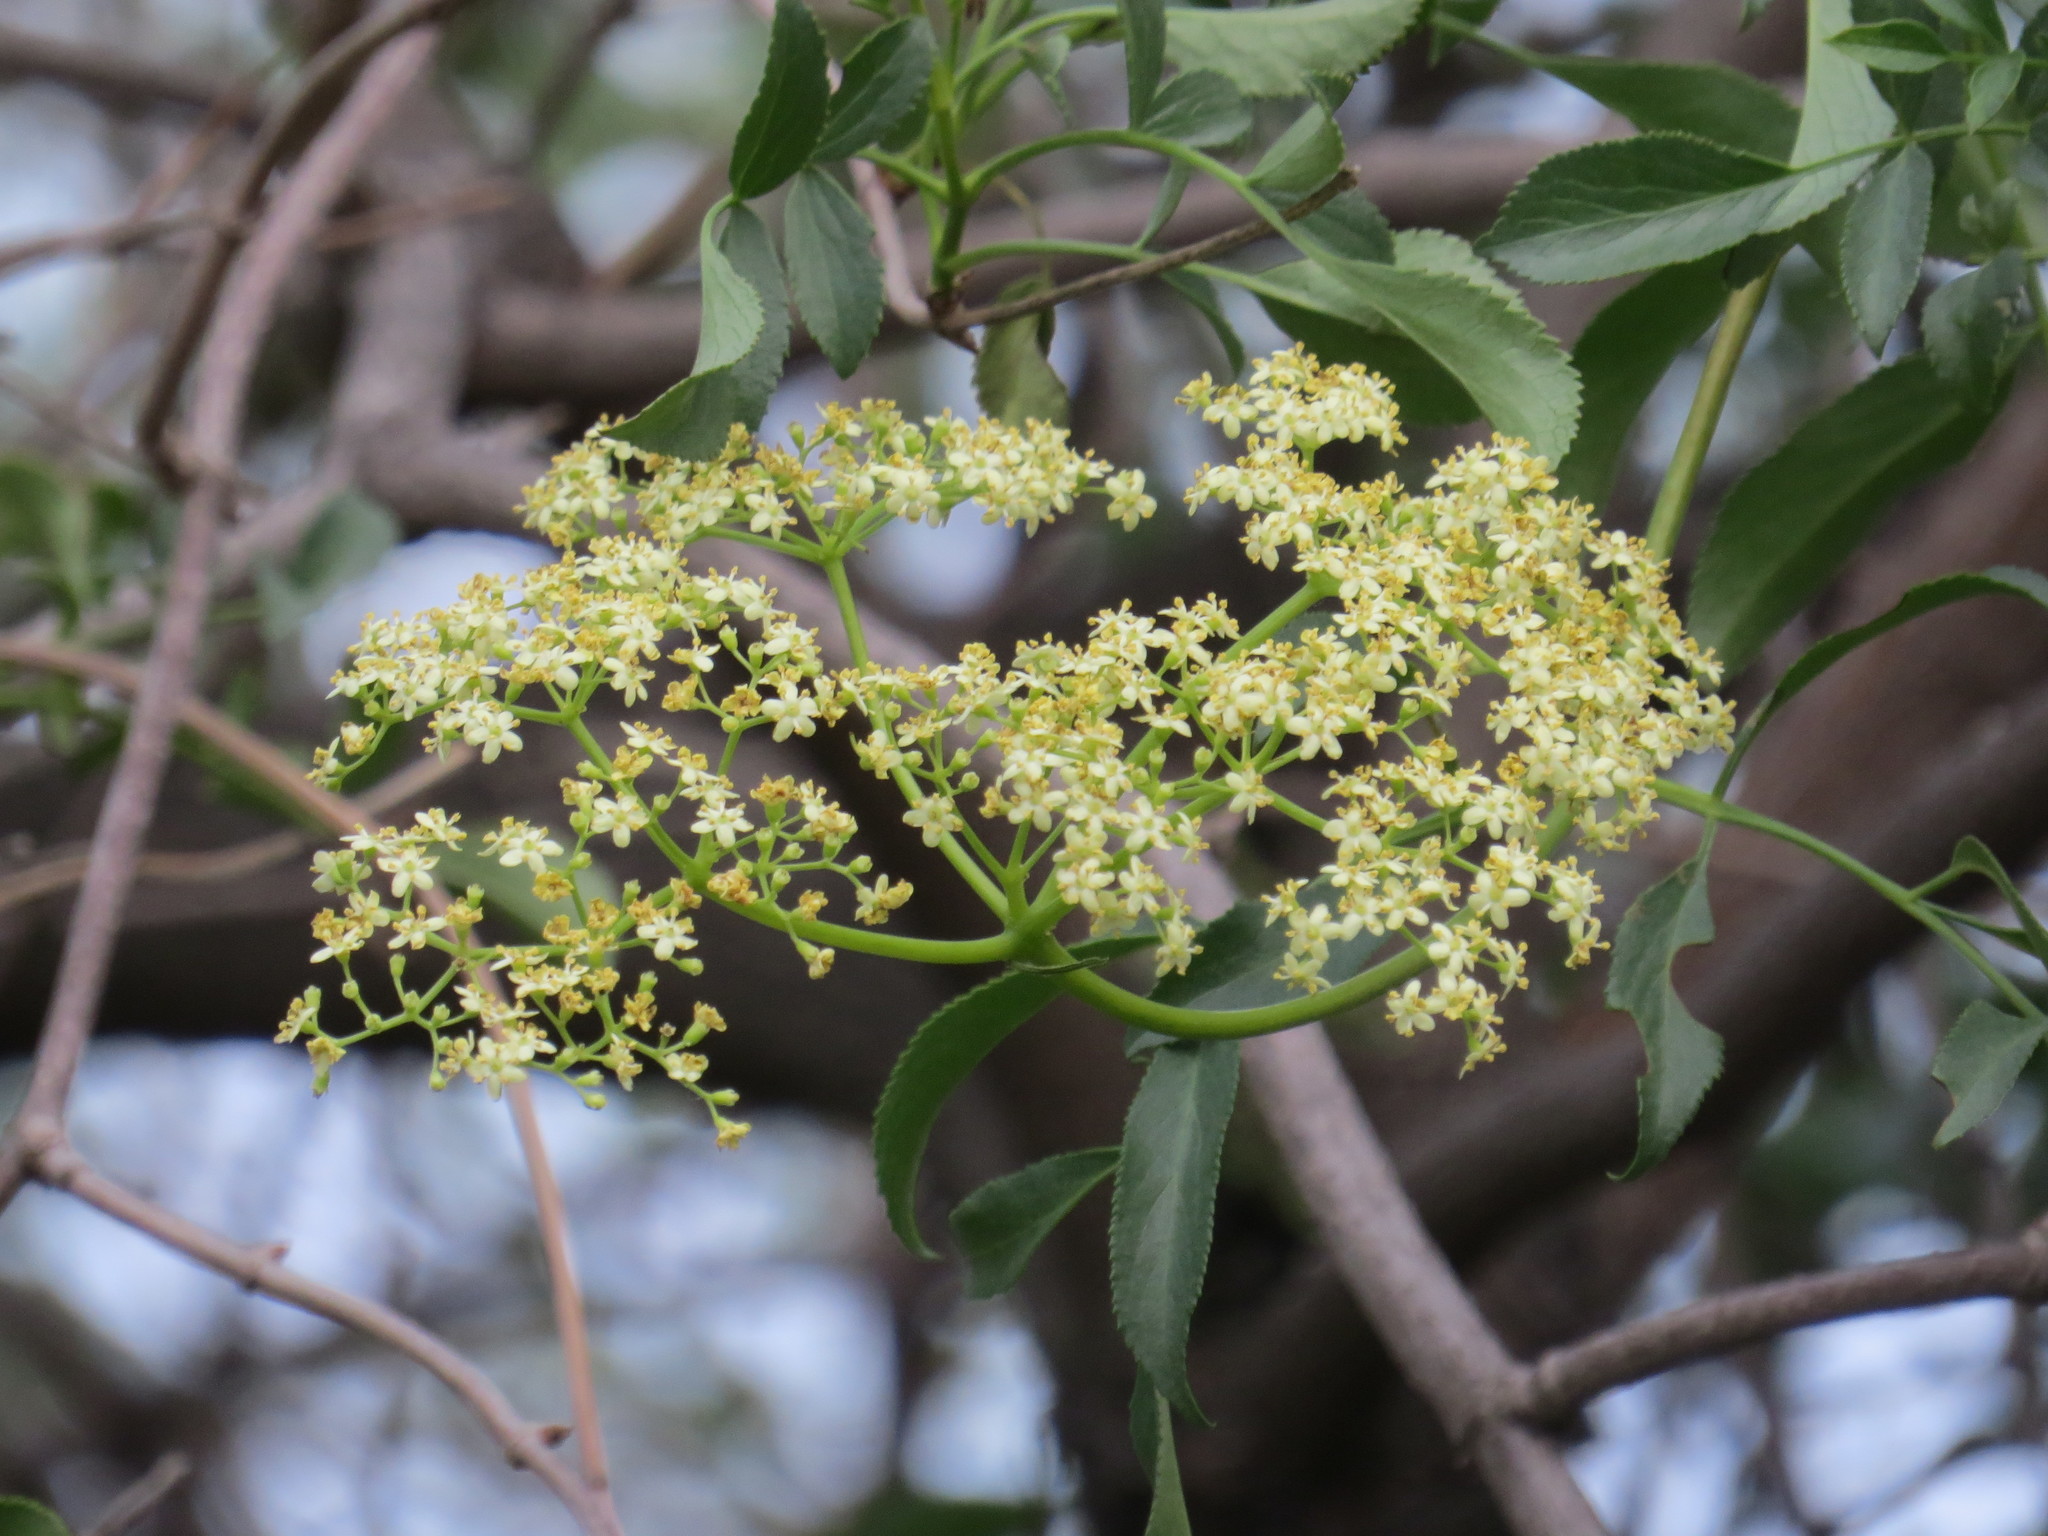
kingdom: Plantae
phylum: Tracheophyta
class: Magnoliopsida
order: Dipsacales
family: Viburnaceae
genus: Sambucus
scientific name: Sambucus cerulea
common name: Blue elder
